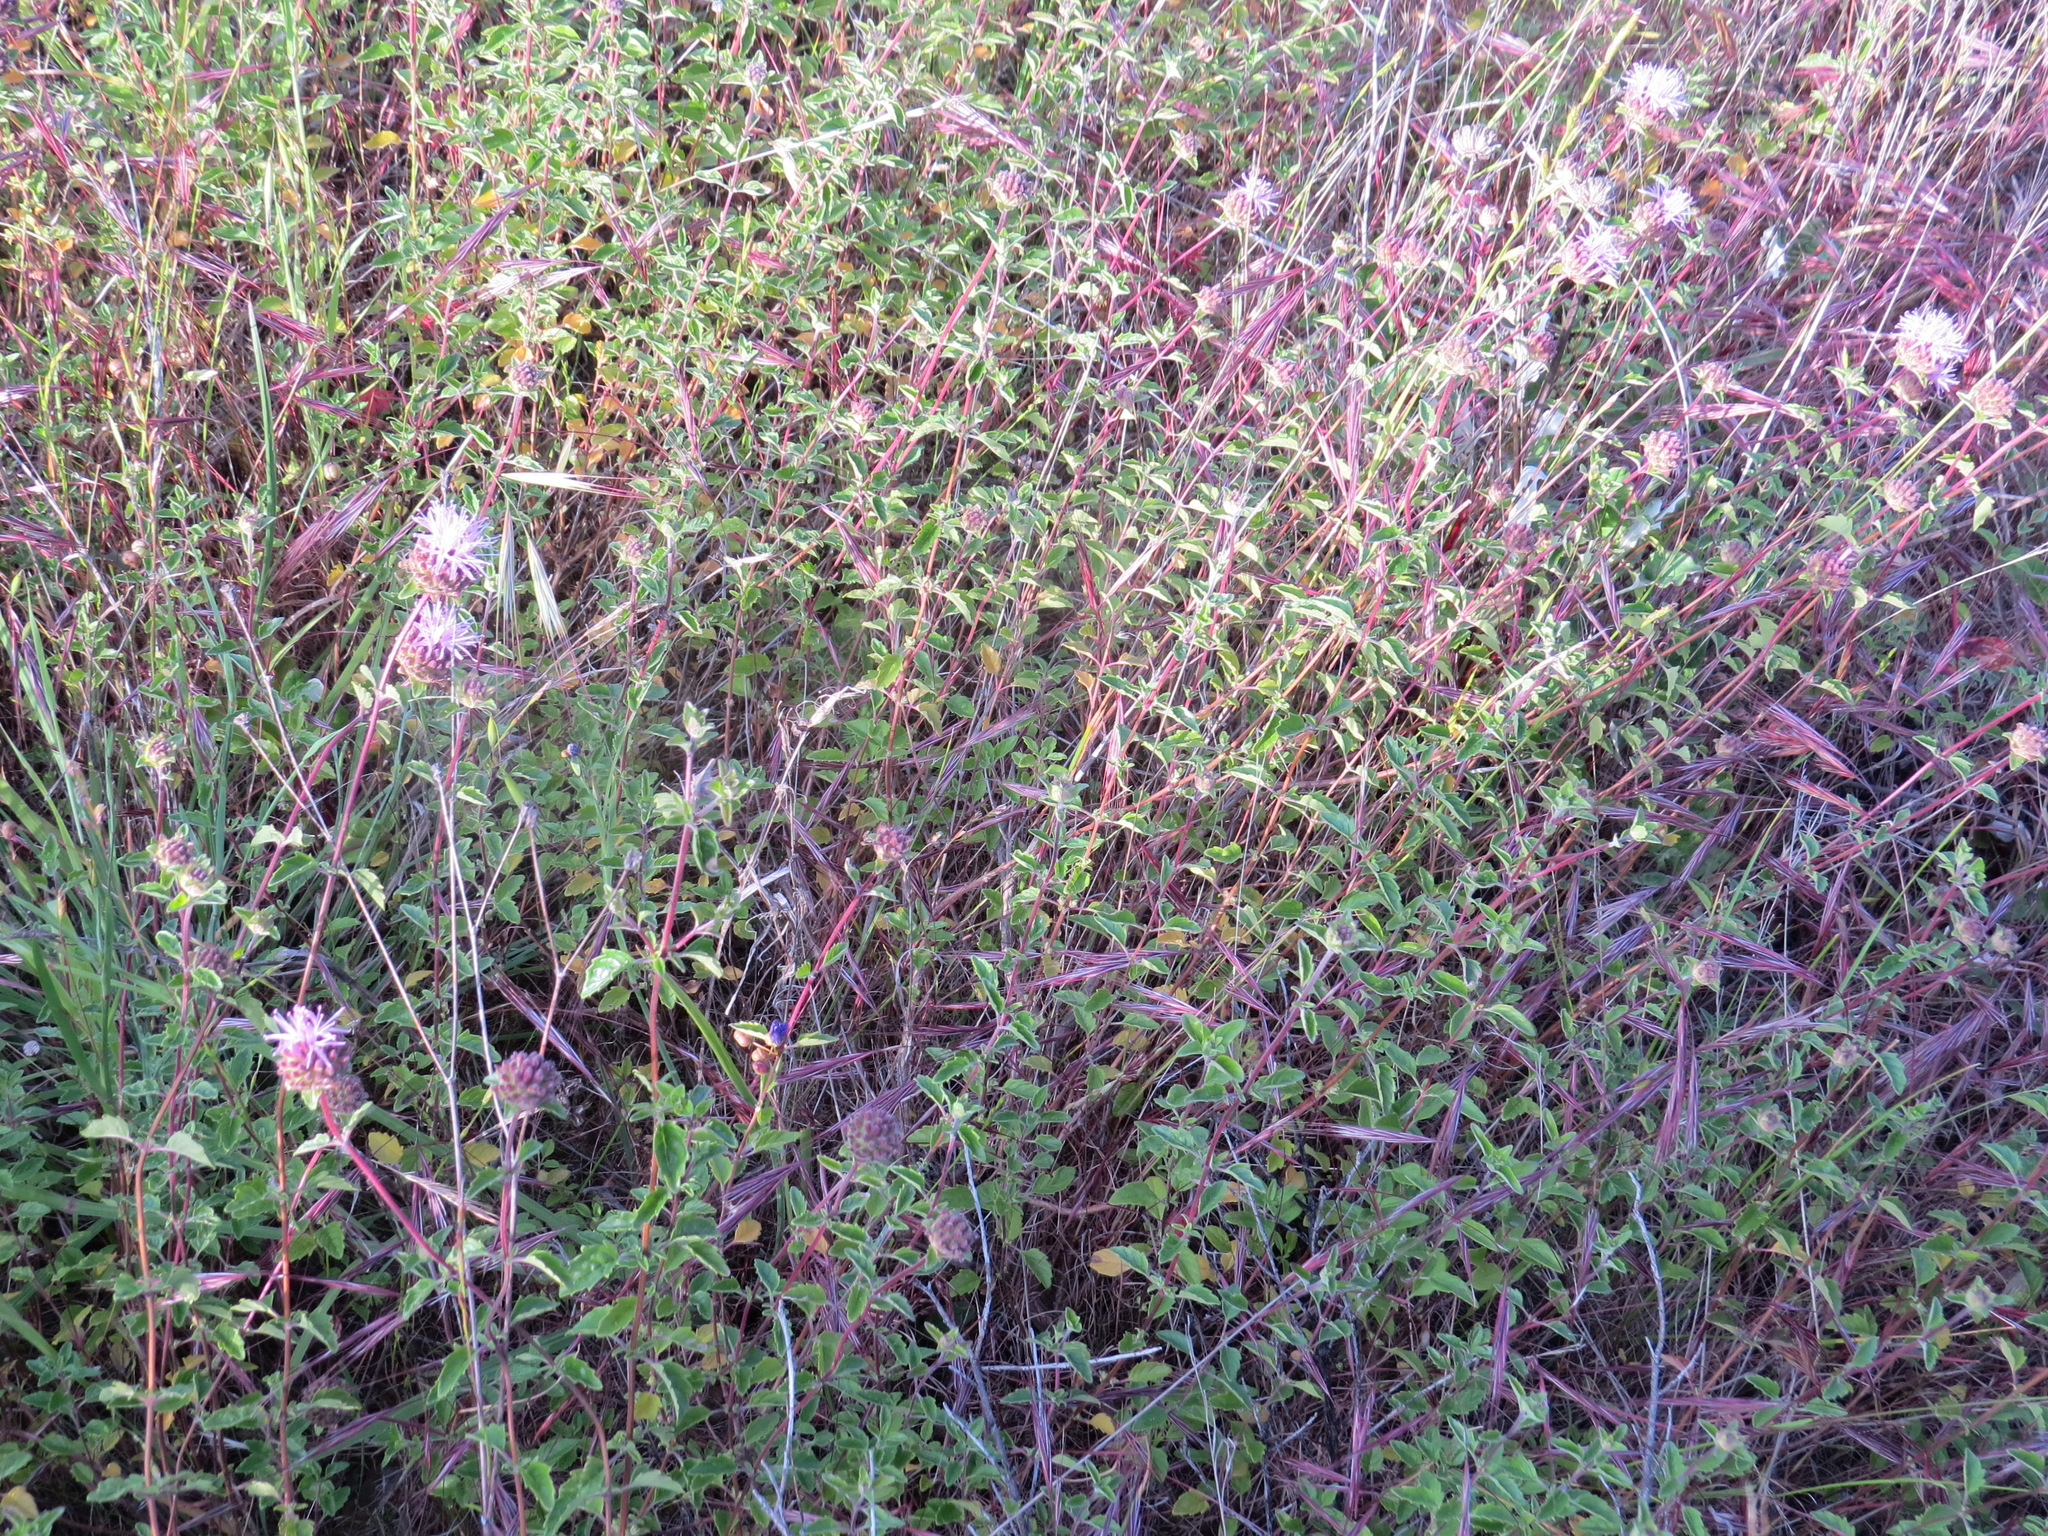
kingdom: Plantae
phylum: Tracheophyta
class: Magnoliopsida
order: Lamiales
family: Lamiaceae
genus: Monardella
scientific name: Monardella odoratissima
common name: Pacific monardella
